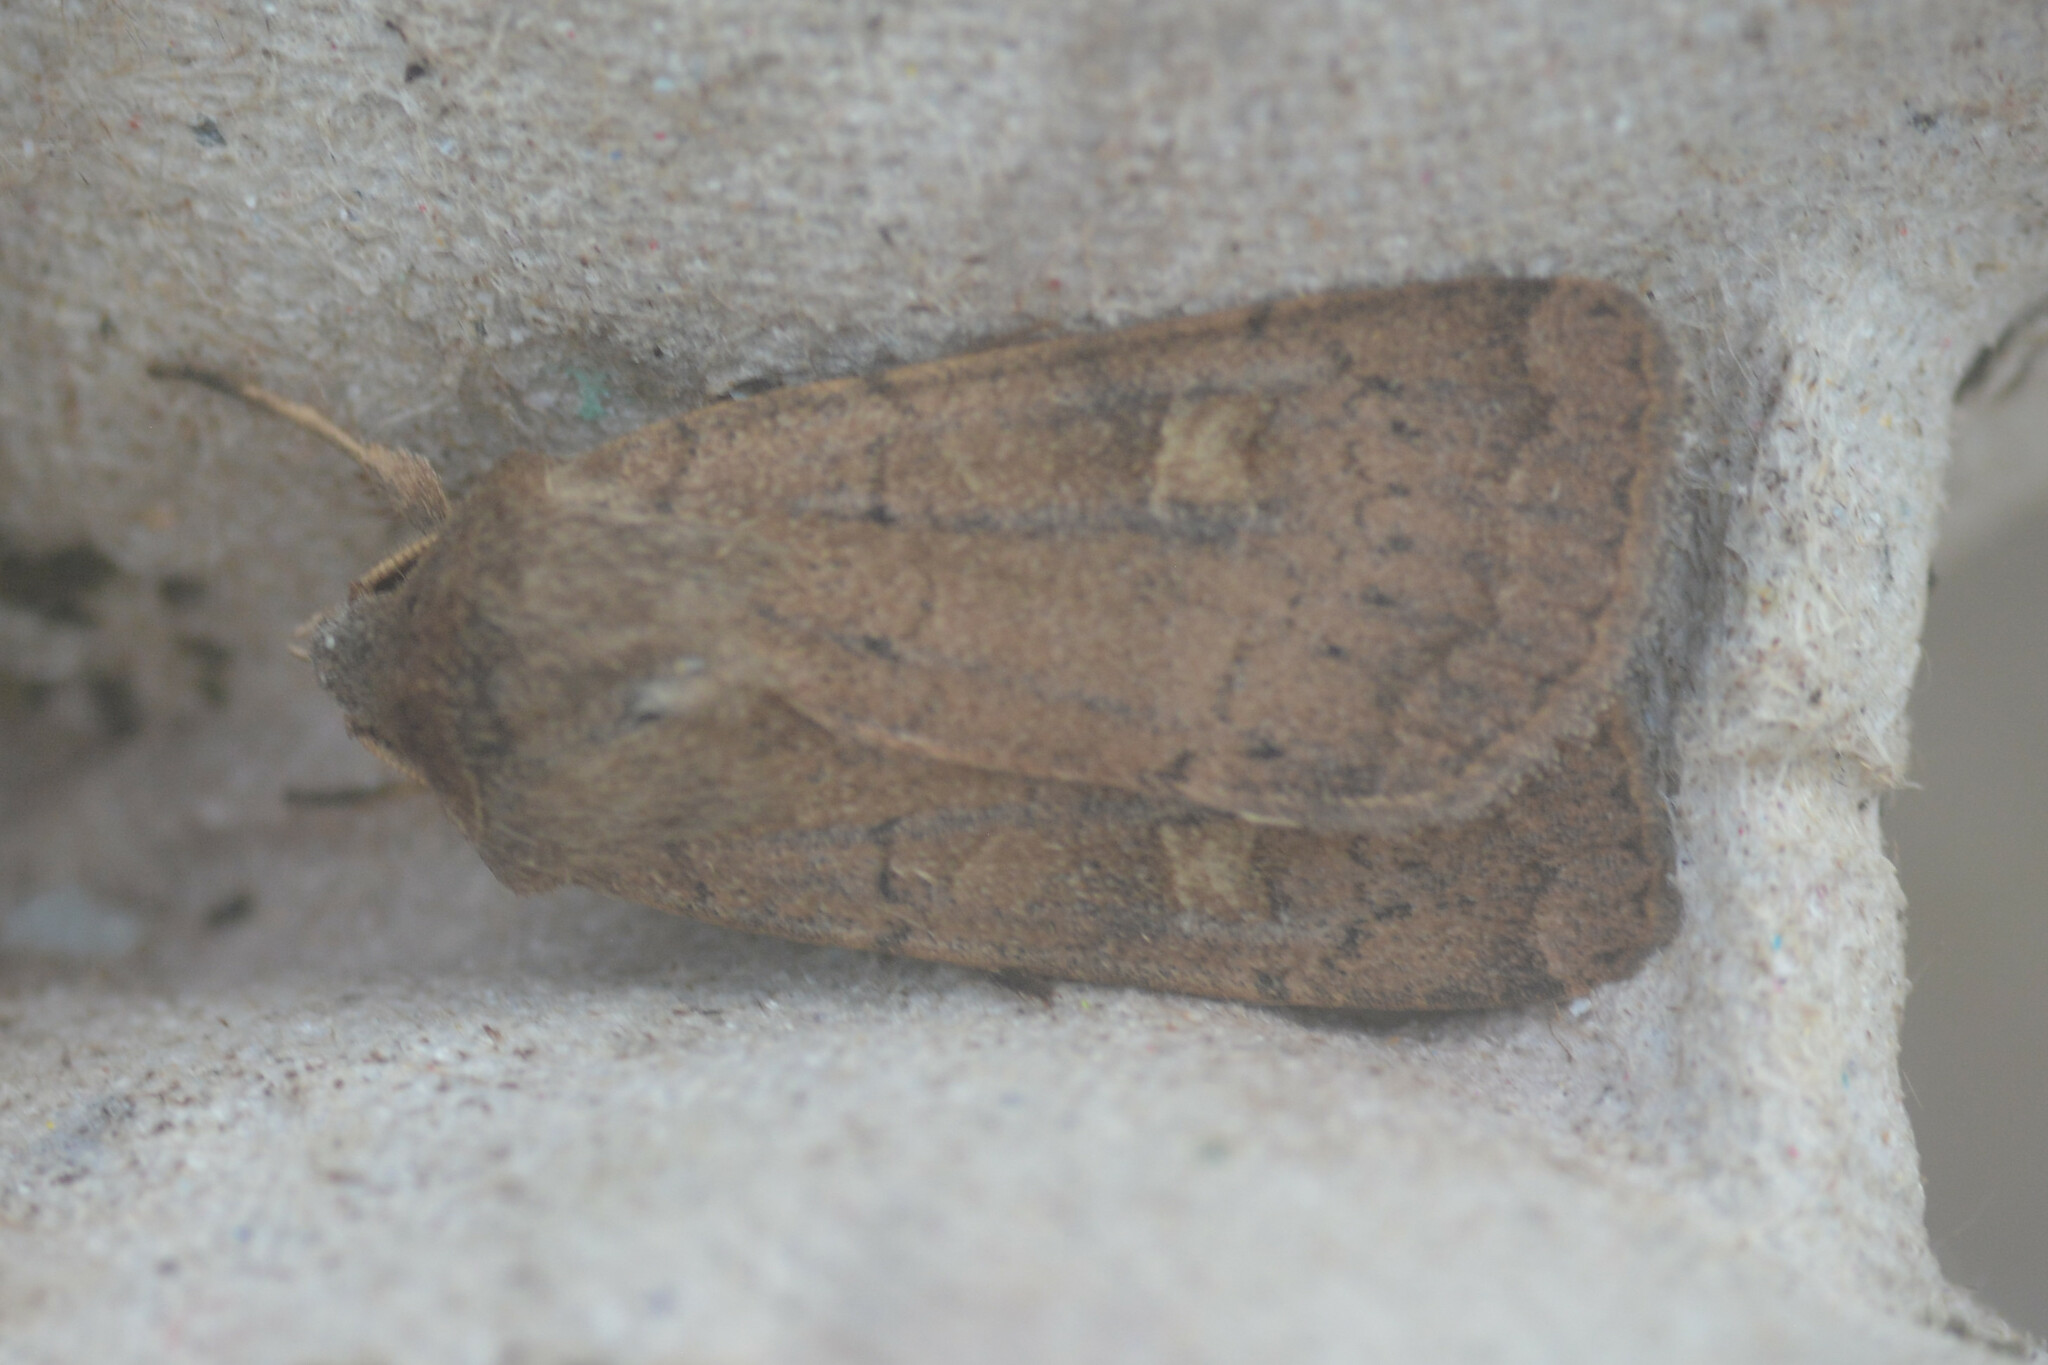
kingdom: Animalia
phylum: Arthropoda
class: Insecta
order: Lepidoptera
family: Noctuidae
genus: Xestia
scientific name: Xestia xanthographa
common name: Square-spot rustic
